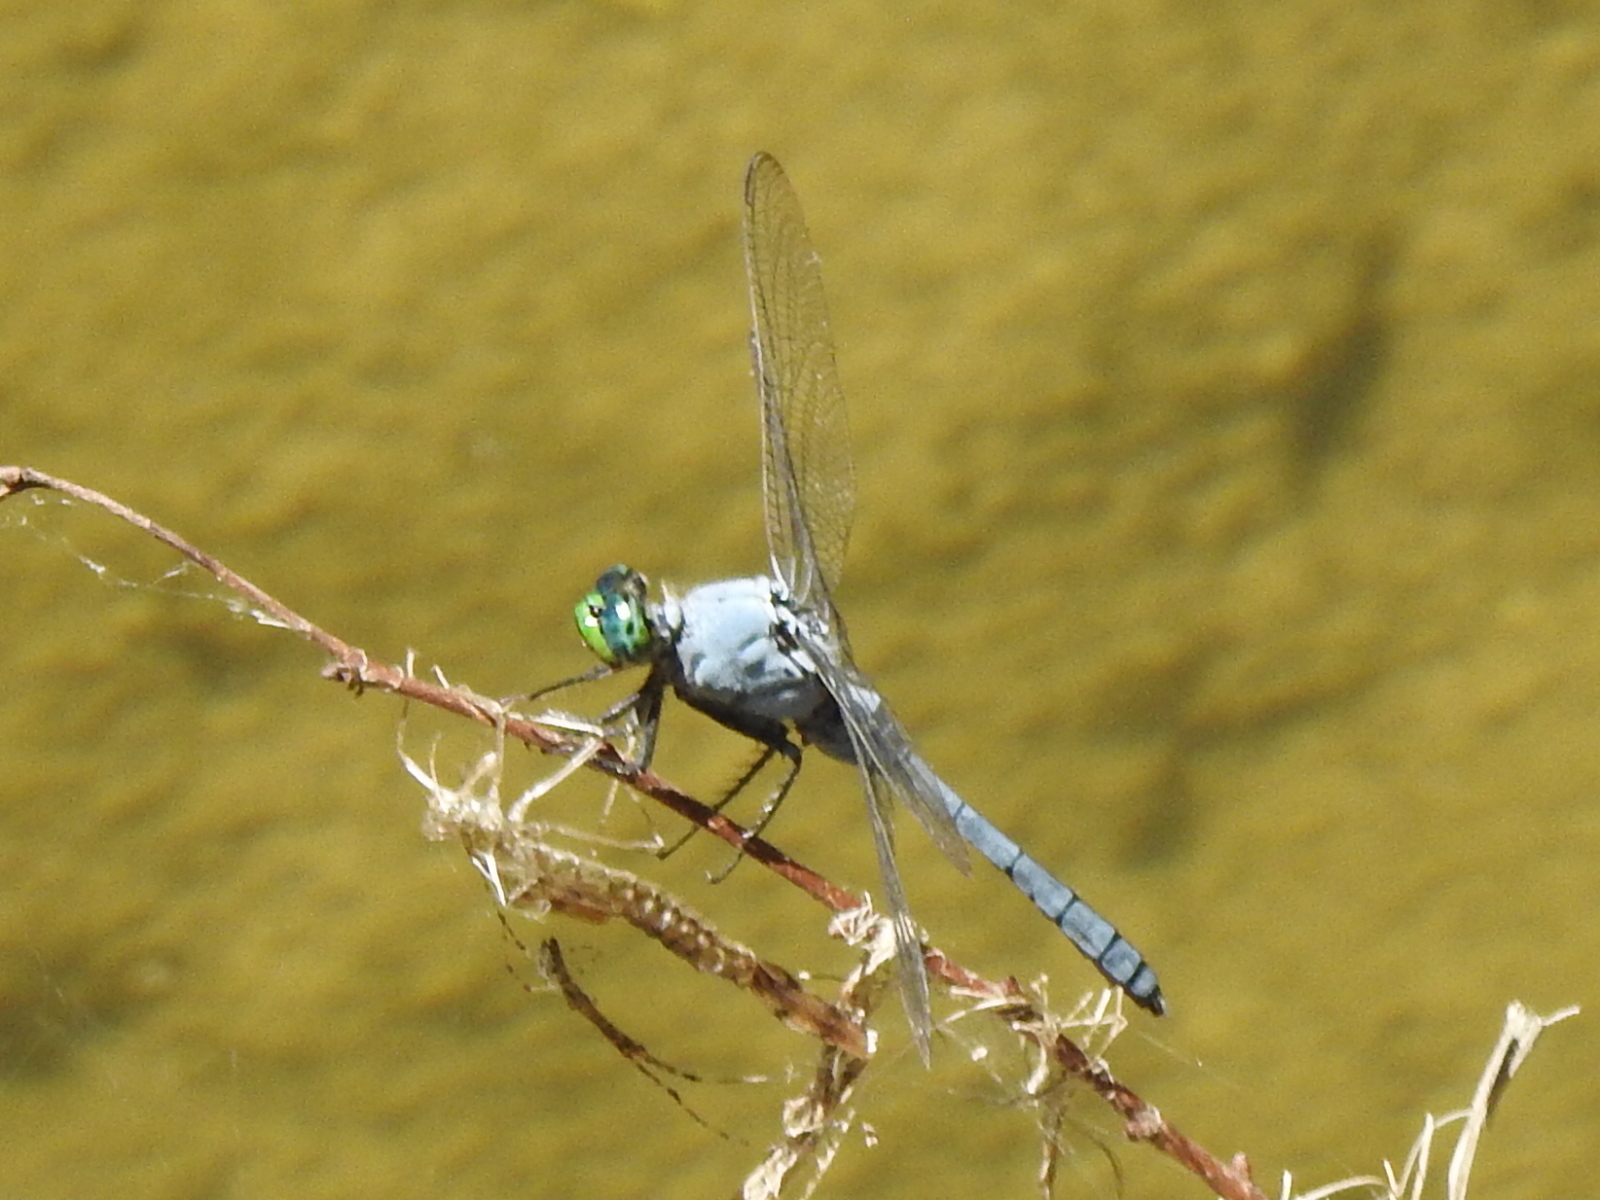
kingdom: Animalia
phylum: Arthropoda
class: Insecta
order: Odonata
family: Libellulidae
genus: Erythemis
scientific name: Erythemis simplicicollis
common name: Eastern pondhawk
